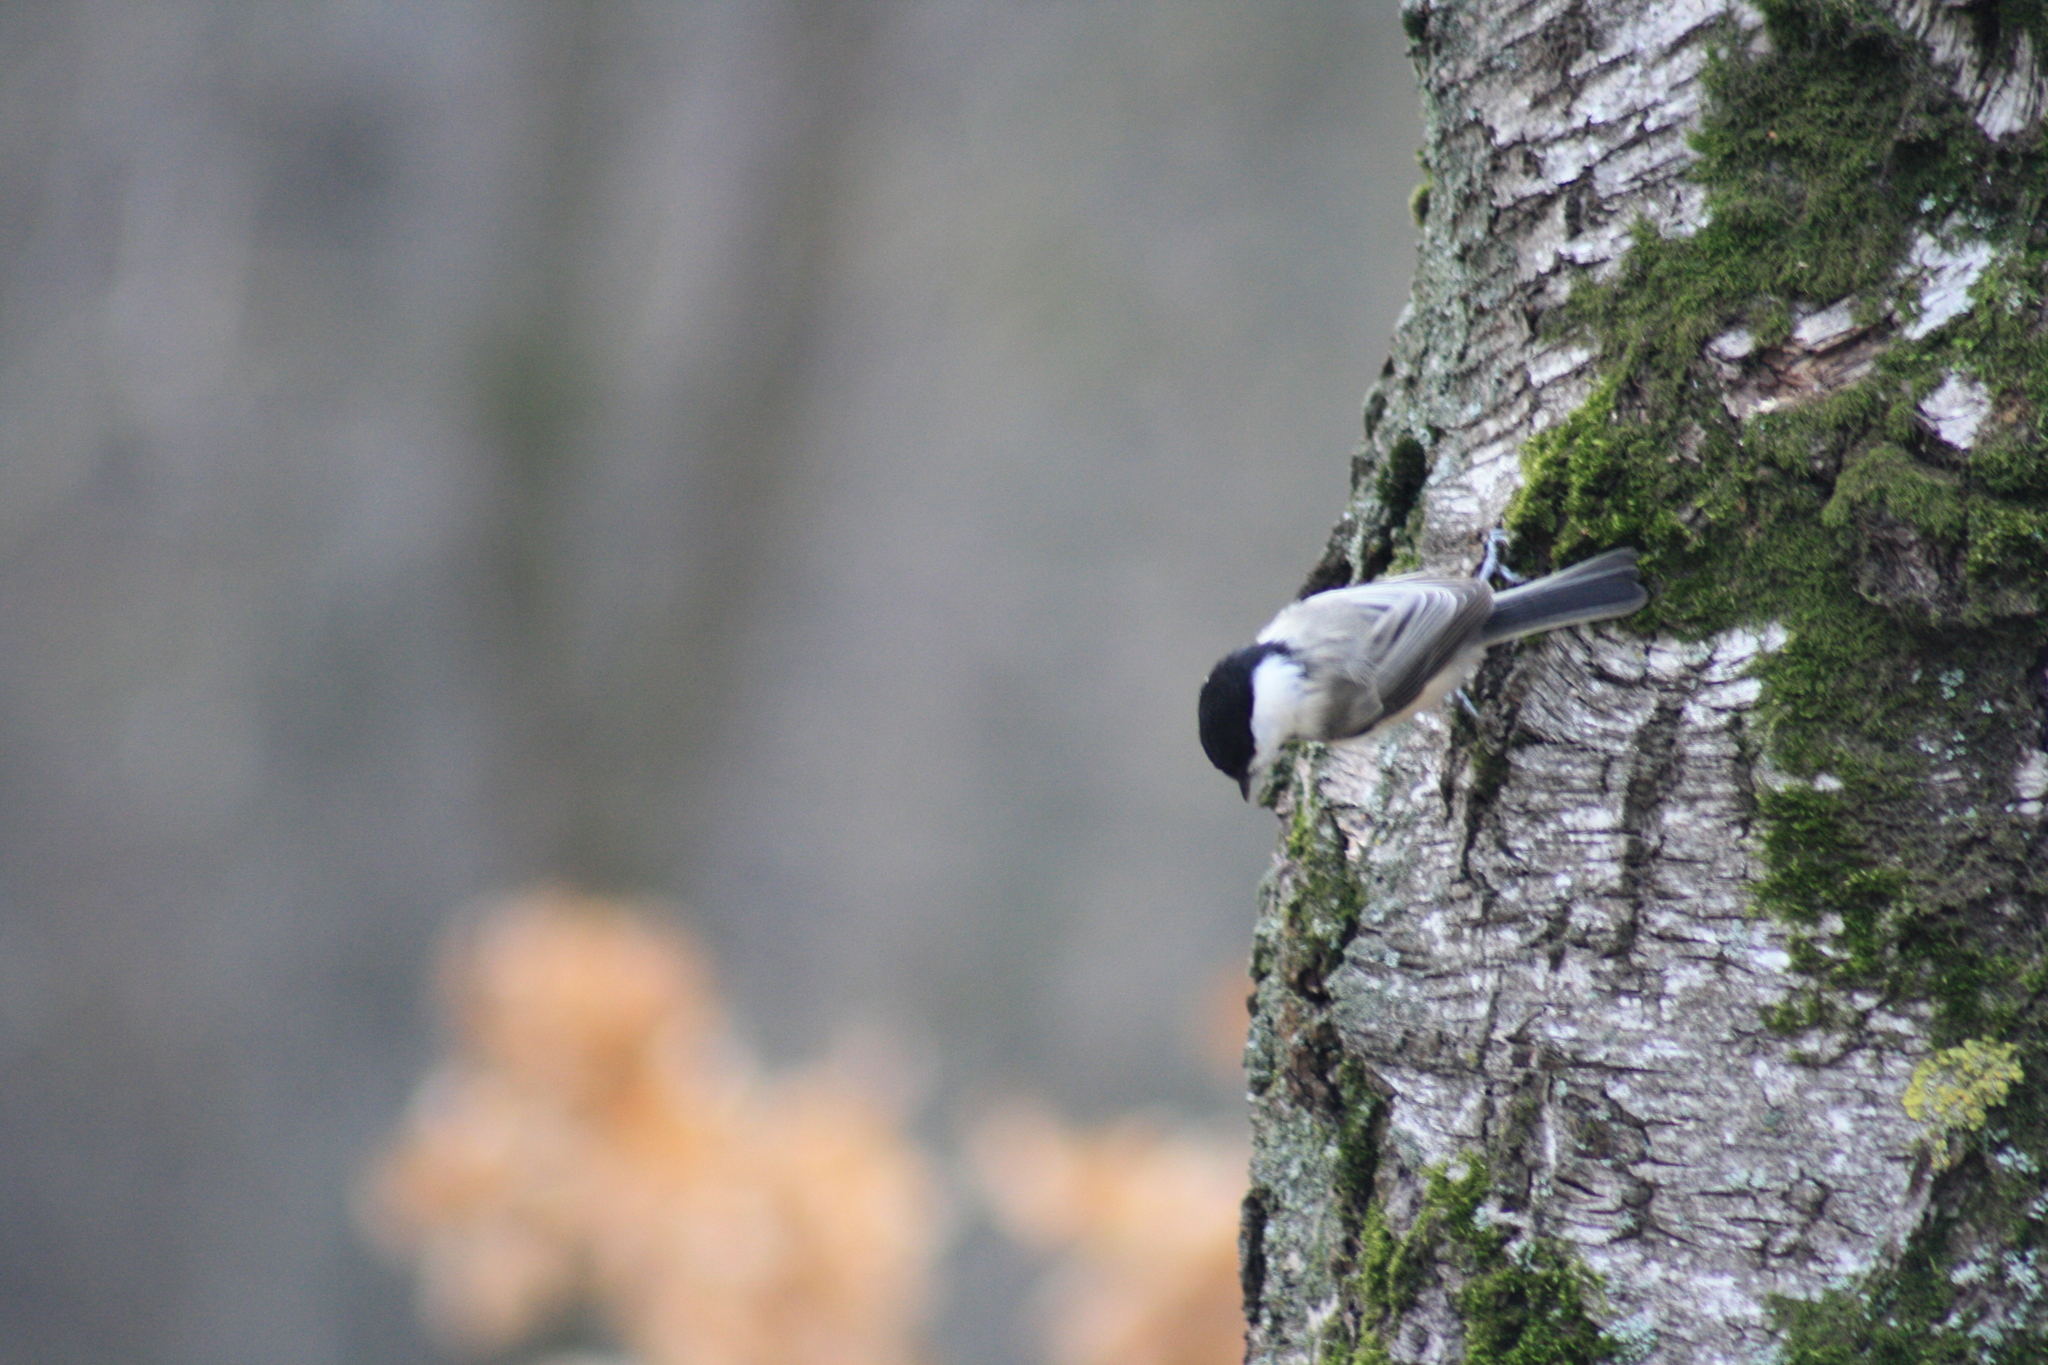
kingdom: Animalia
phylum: Chordata
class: Aves
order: Passeriformes
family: Paridae
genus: Poecile
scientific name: Poecile montanus
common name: Willow tit
